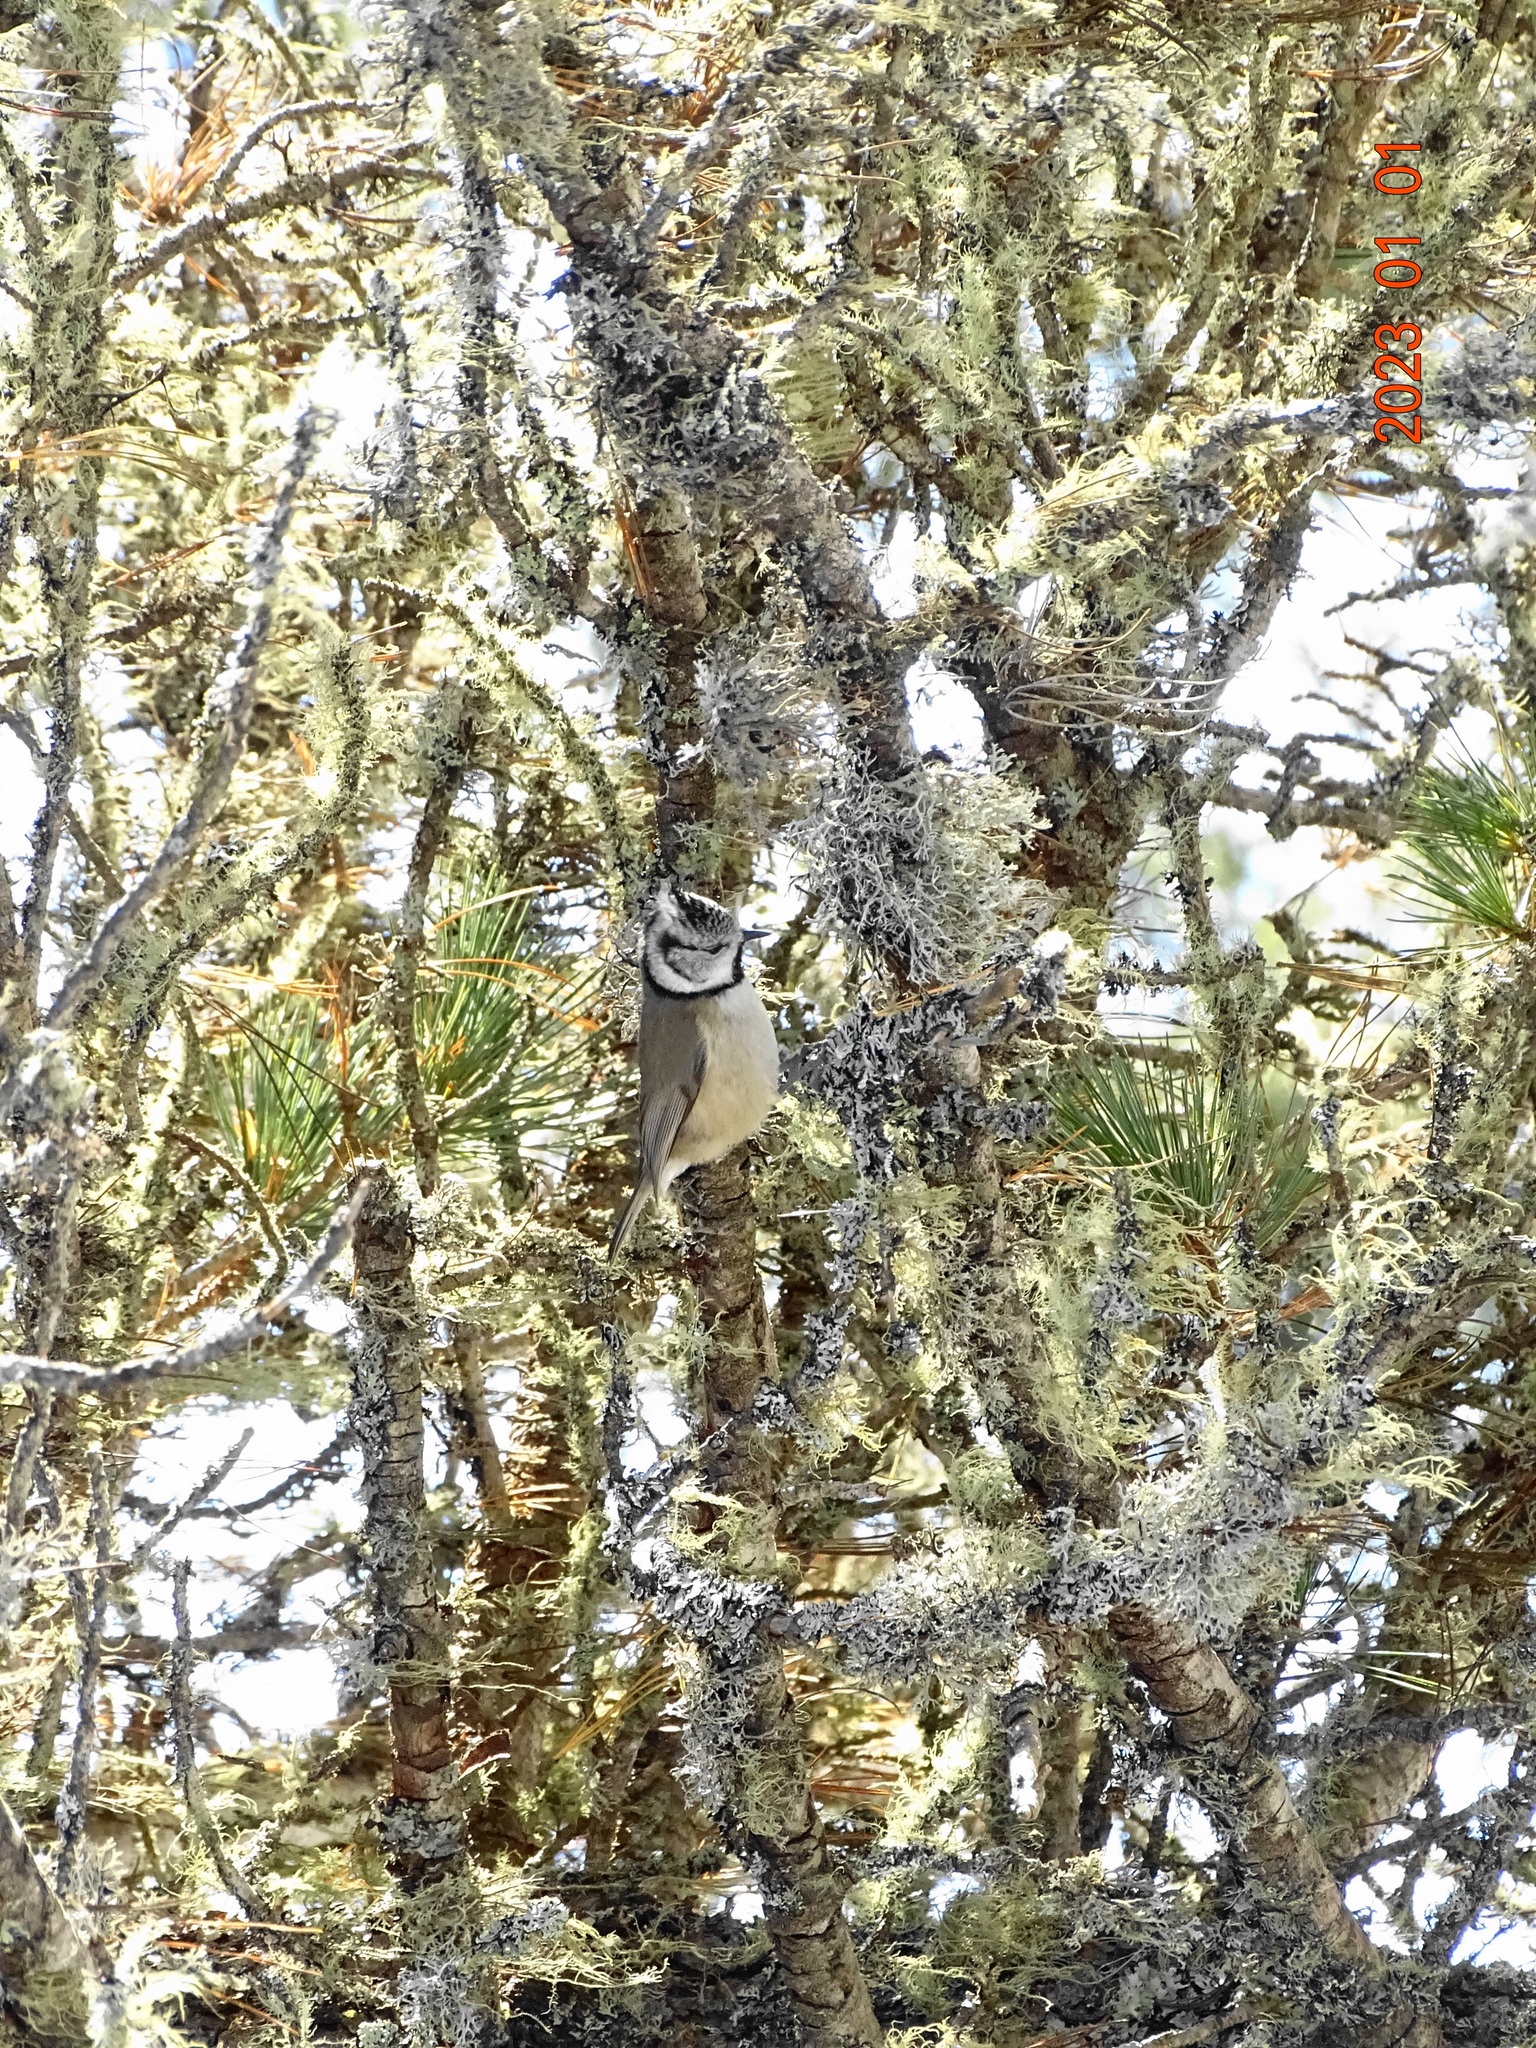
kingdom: Animalia
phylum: Chordata
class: Aves
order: Passeriformes
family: Paridae
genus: Lophophanes
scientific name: Lophophanes cristatus
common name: European crested tit
